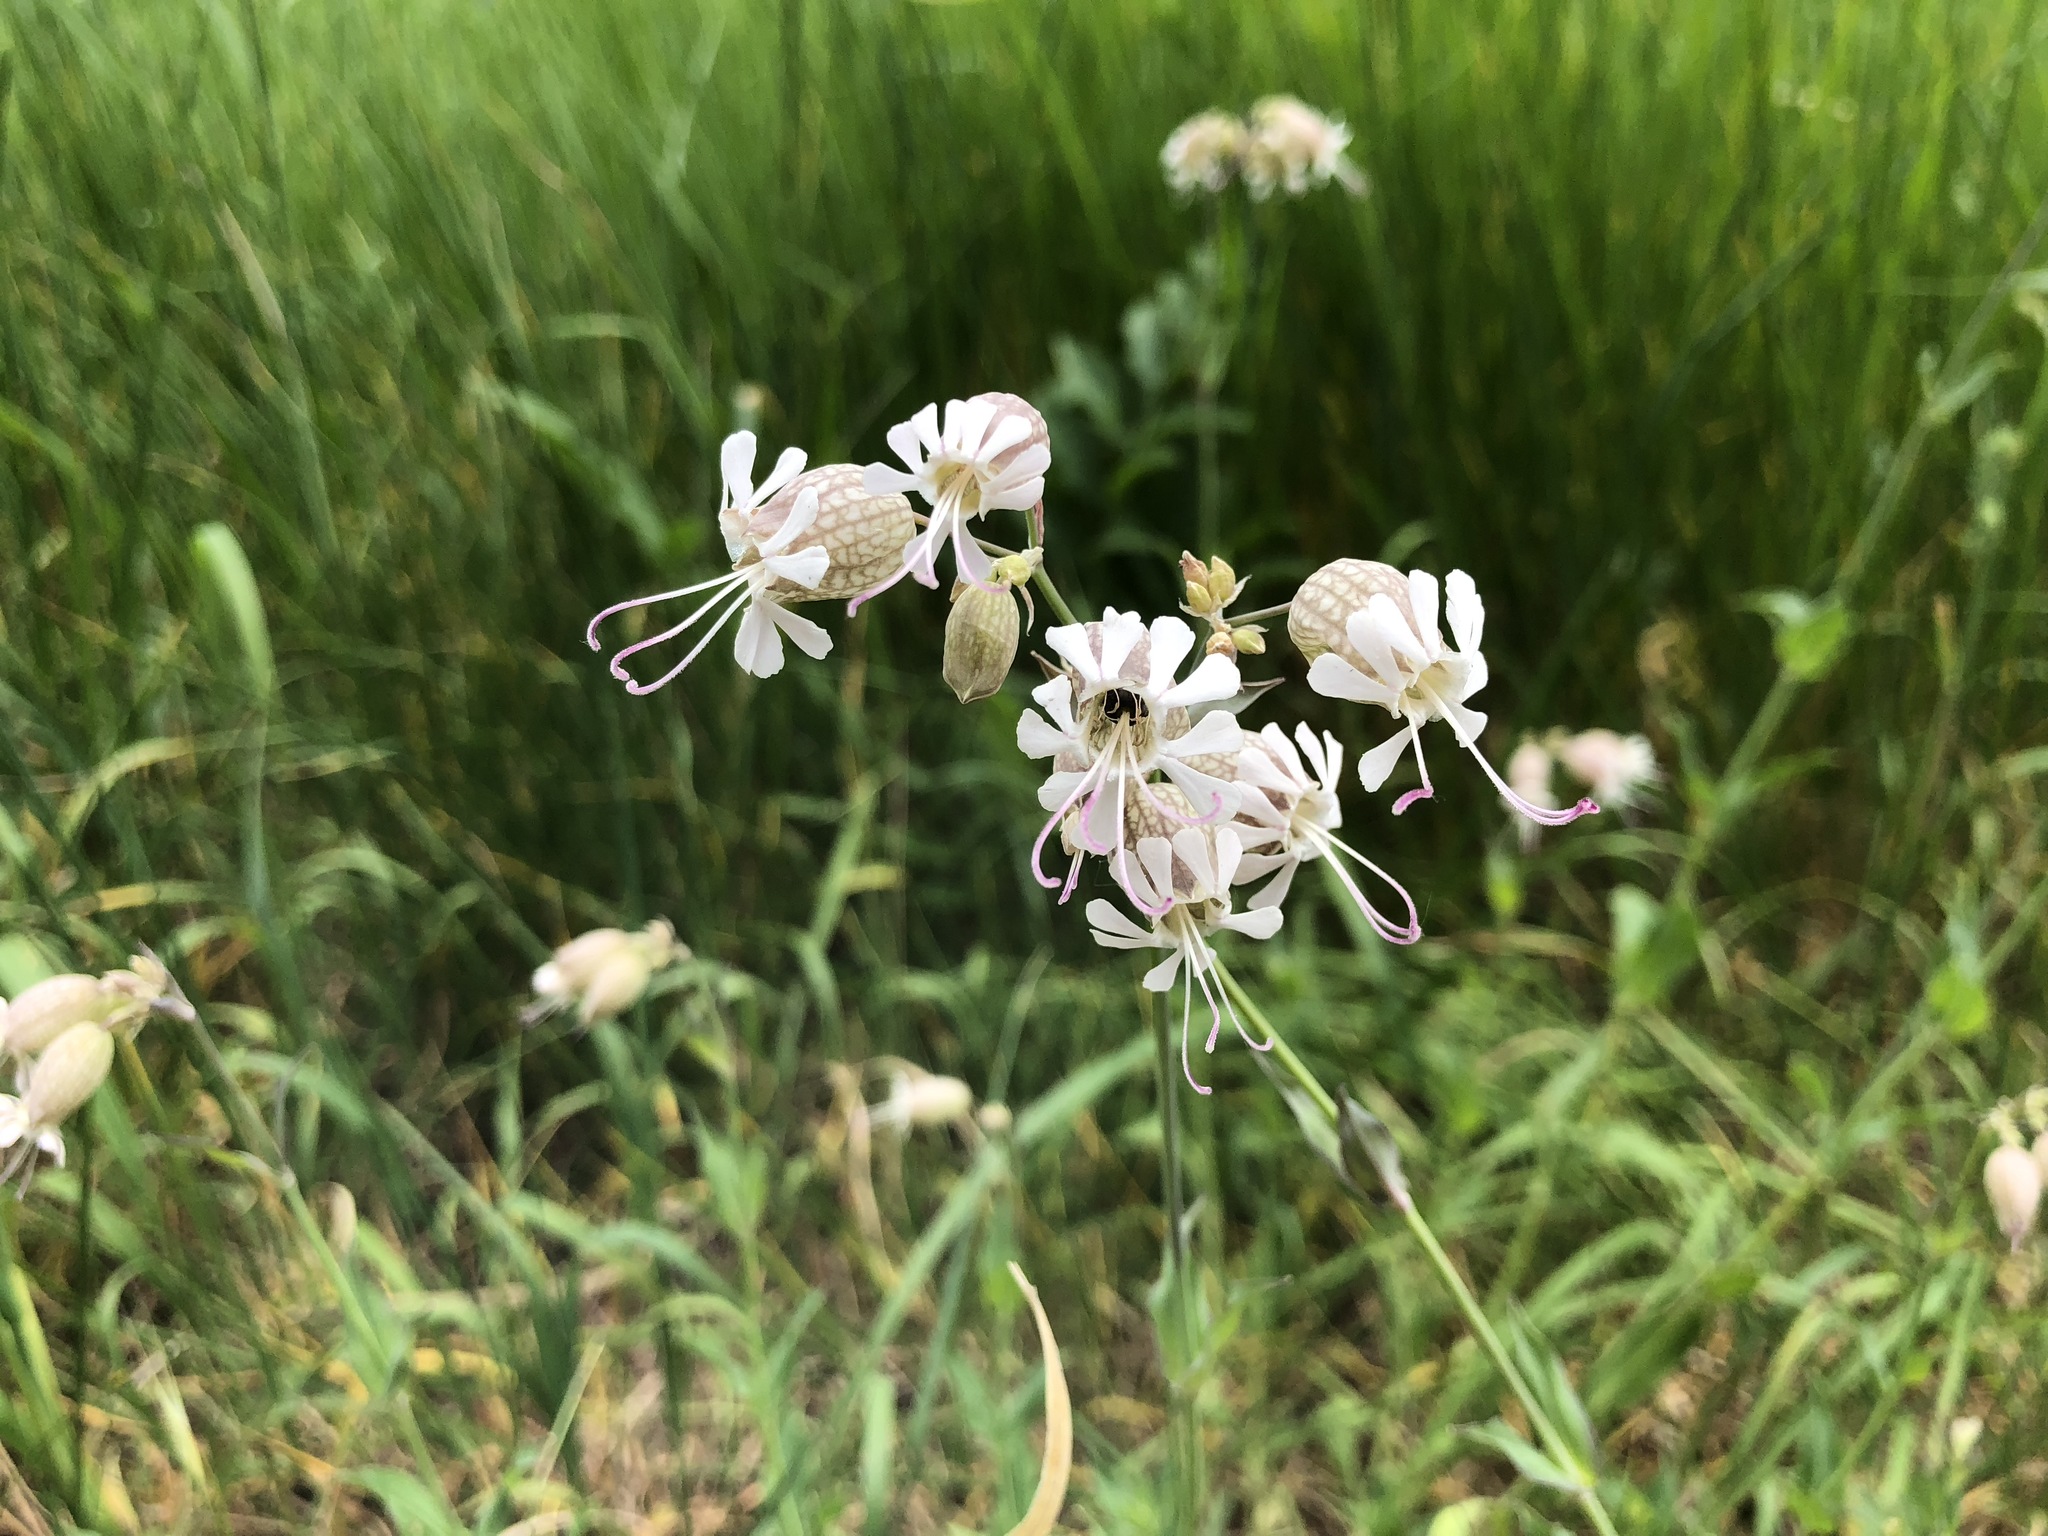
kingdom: Plantae
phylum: Tracheophyta
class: Magnoliopsida
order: Caryophyllales
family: Caryophyllaceae
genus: Silene
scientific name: Silene vulgaris
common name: Bladder campion
